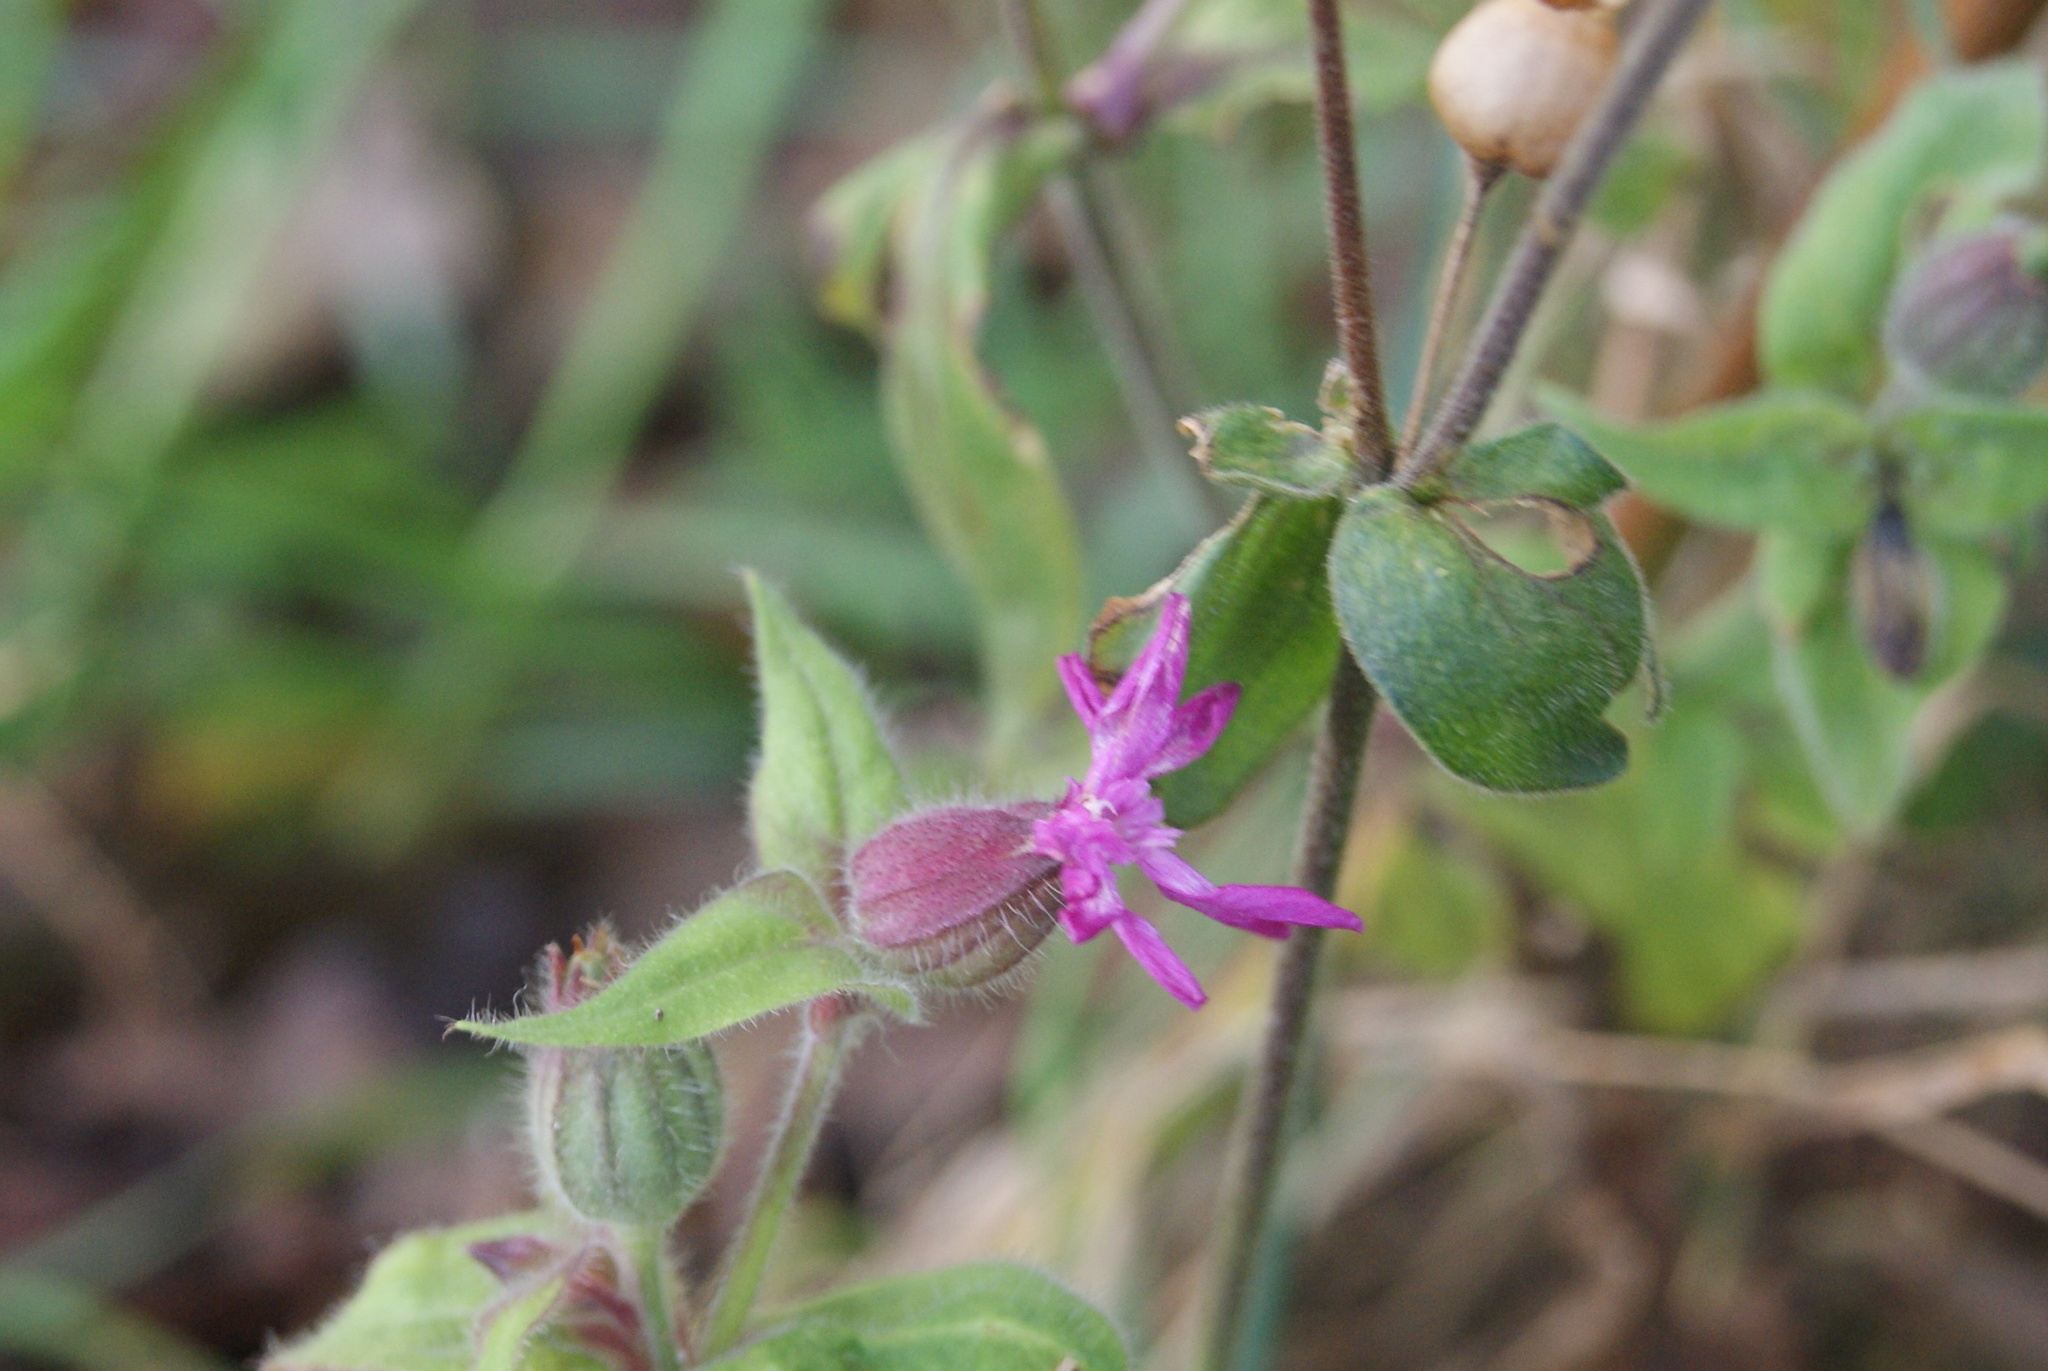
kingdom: Plantae
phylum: Tracheophyta
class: Magnoliopsida
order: Caryophyllales
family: Caryophyllaceae
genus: Silene
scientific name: Silene dioica
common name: Red campion
